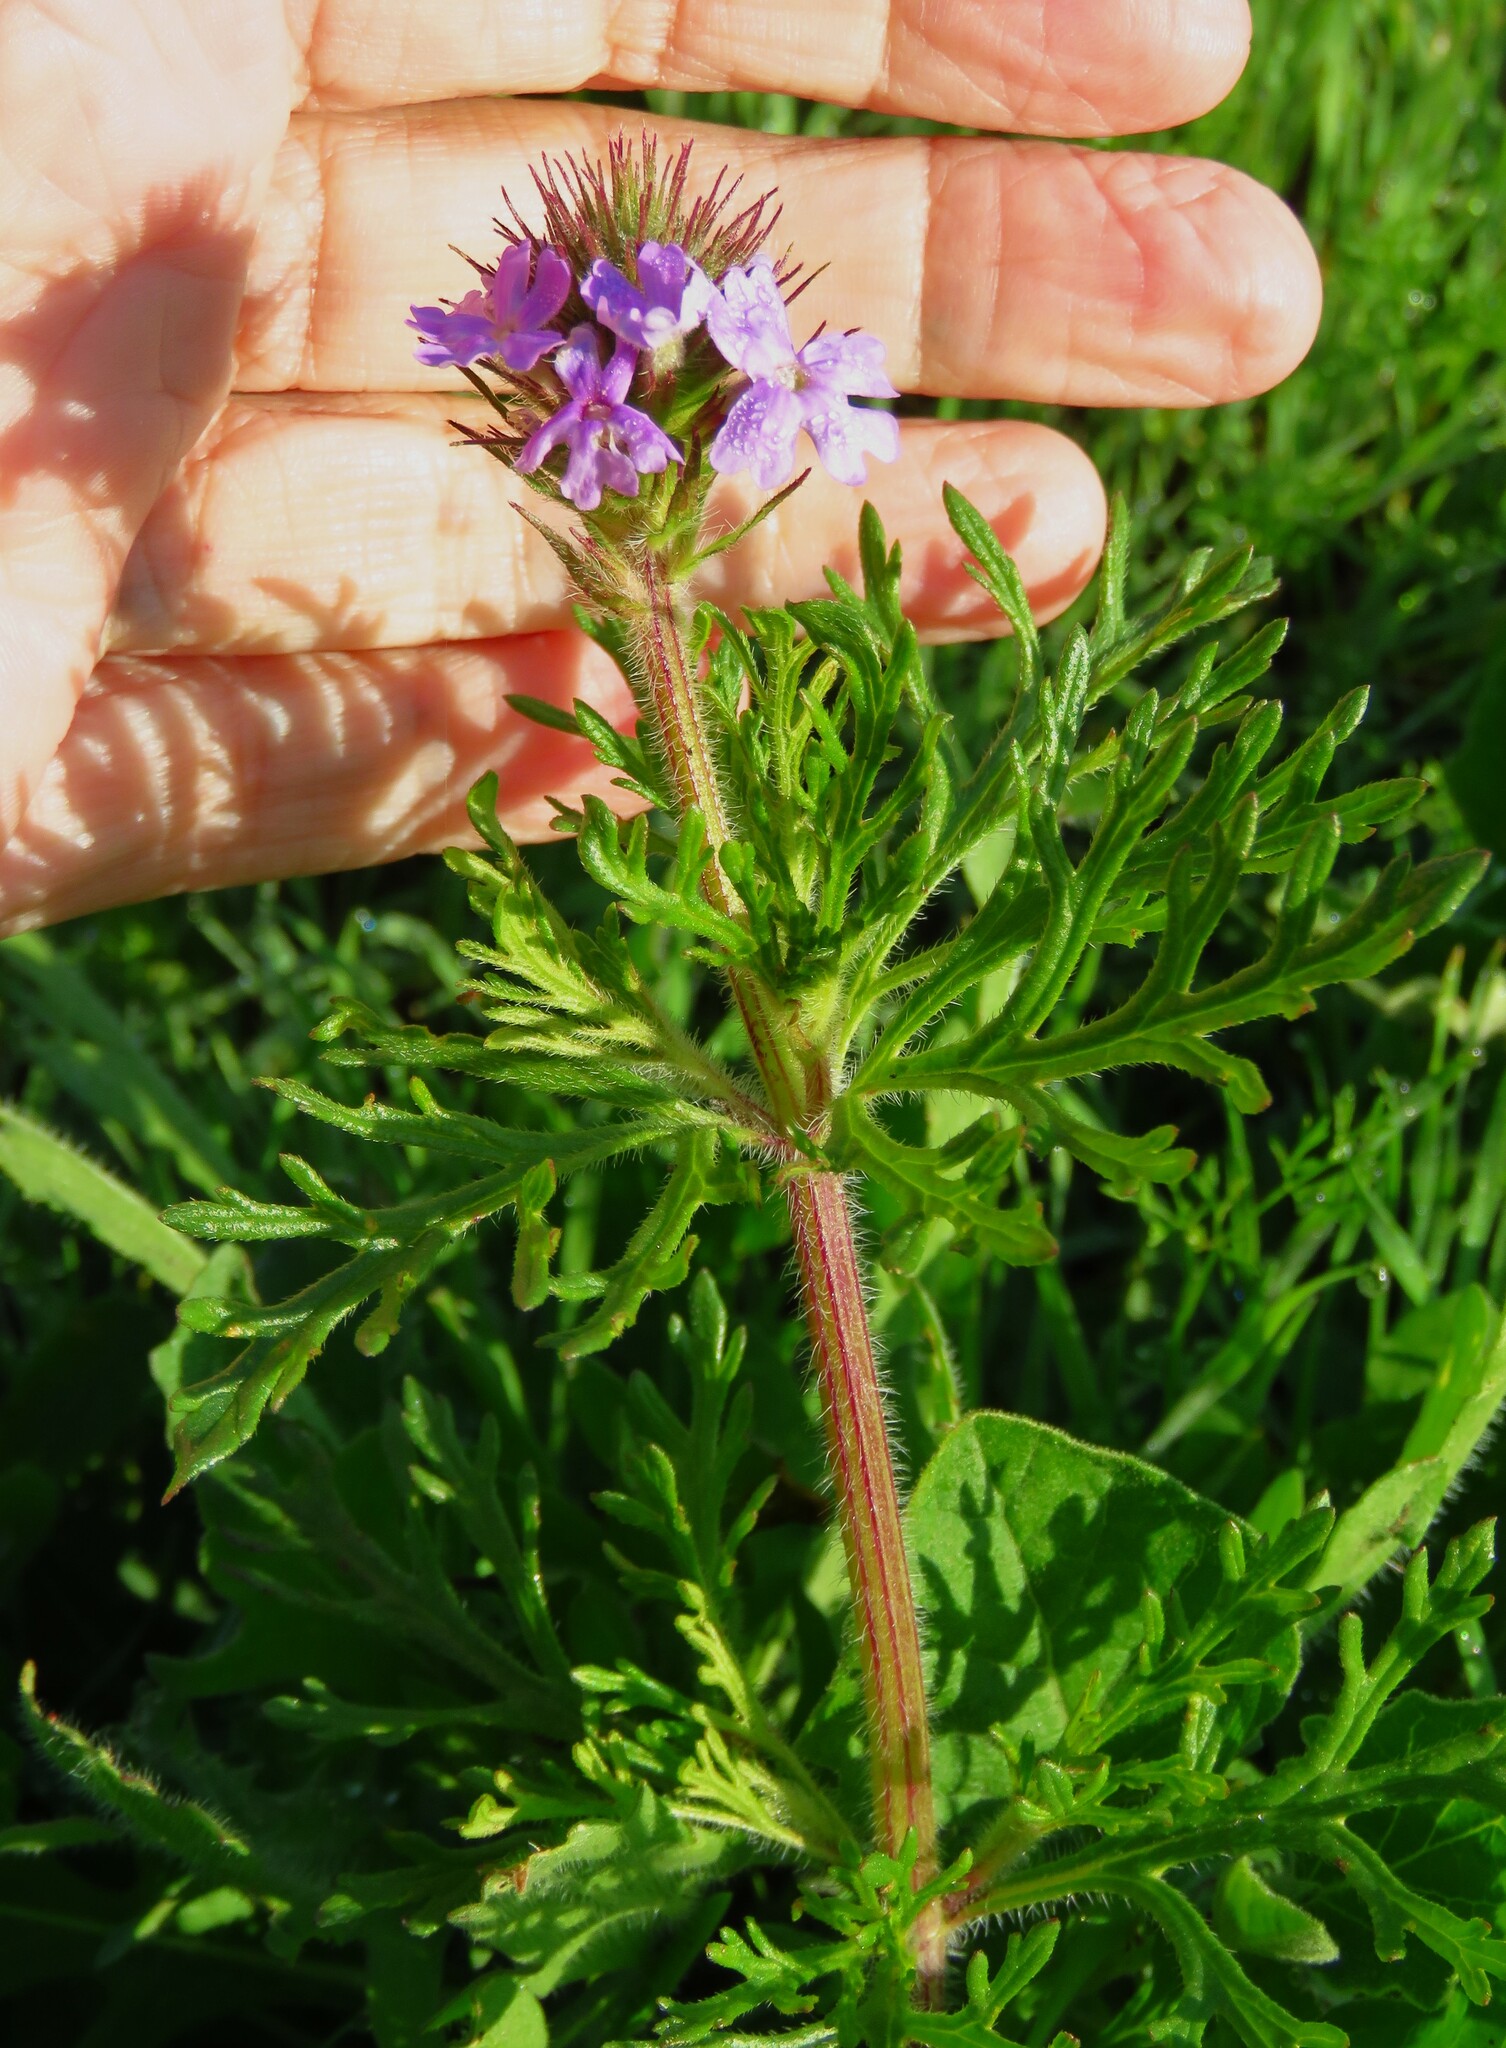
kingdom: Plantae
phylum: Tracheophyta
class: Magnoliopsida
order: Lamiales
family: Verbenaceae
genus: Verbena
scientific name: Verbena bipinnatifida
